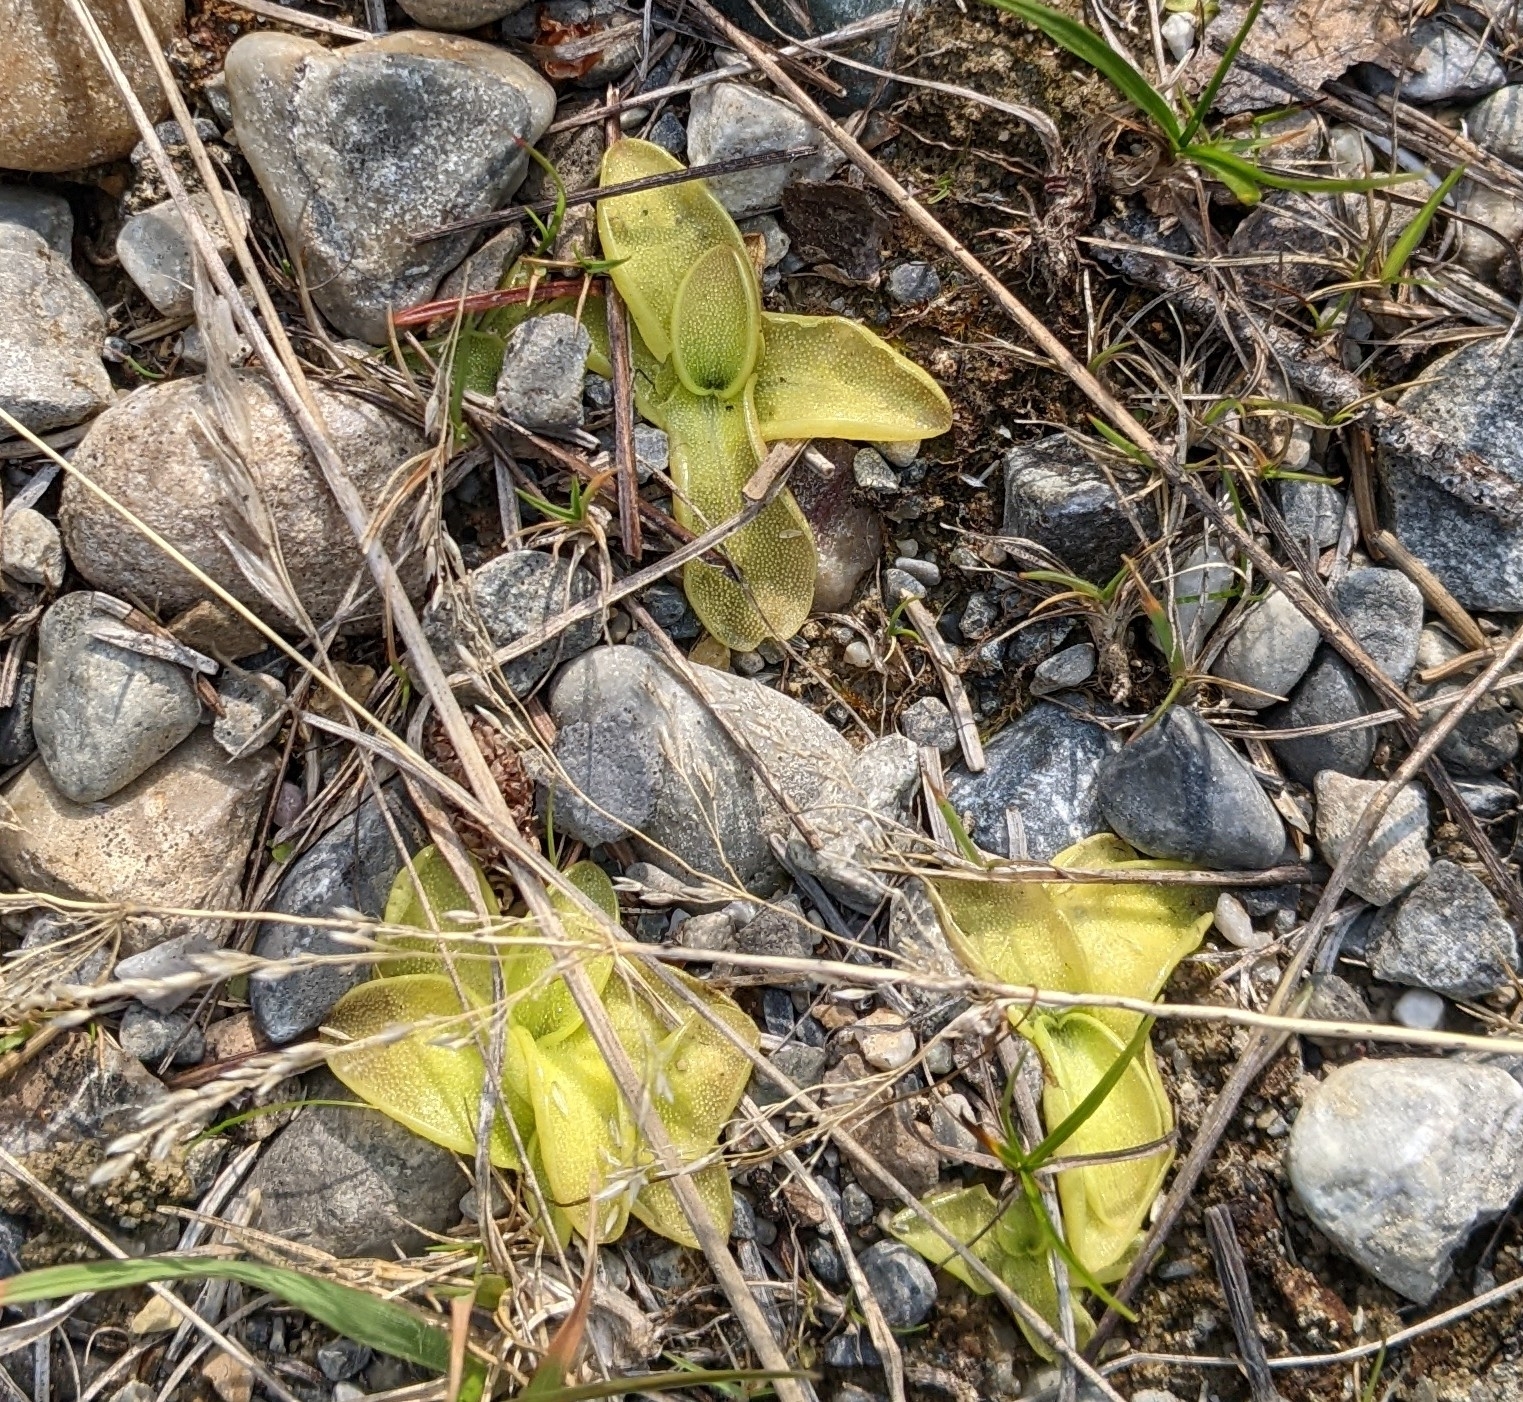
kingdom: Plantae
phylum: Tracheophyta
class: Magnoliopsida
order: Lamiales
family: Lentibulariaceae
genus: Pinguicula
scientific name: Pinguicula vulgaris
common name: Common butterwort
